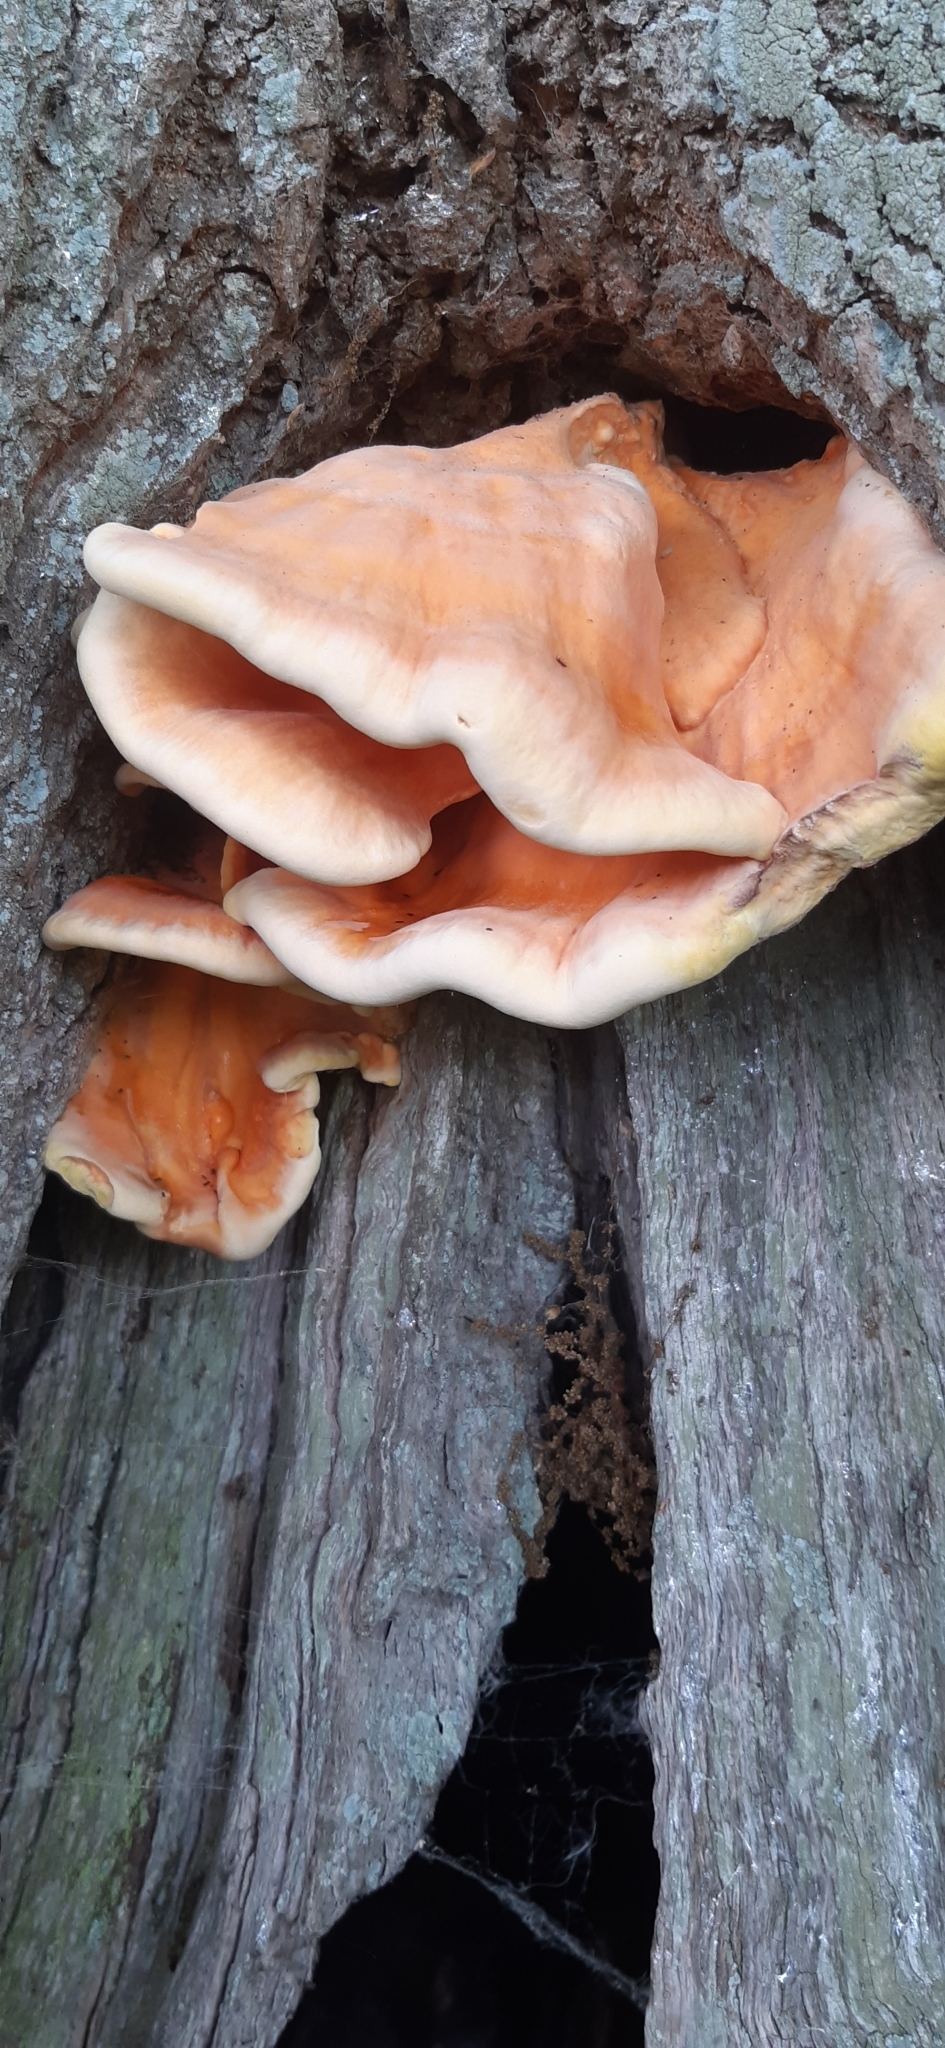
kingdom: Fungi
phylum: Basidiomycota
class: Agaricomycetes
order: Polyporales
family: Laetiporaceae
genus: Laetiporus
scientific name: Laetiporus sulphureus
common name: Chicken of the woods
